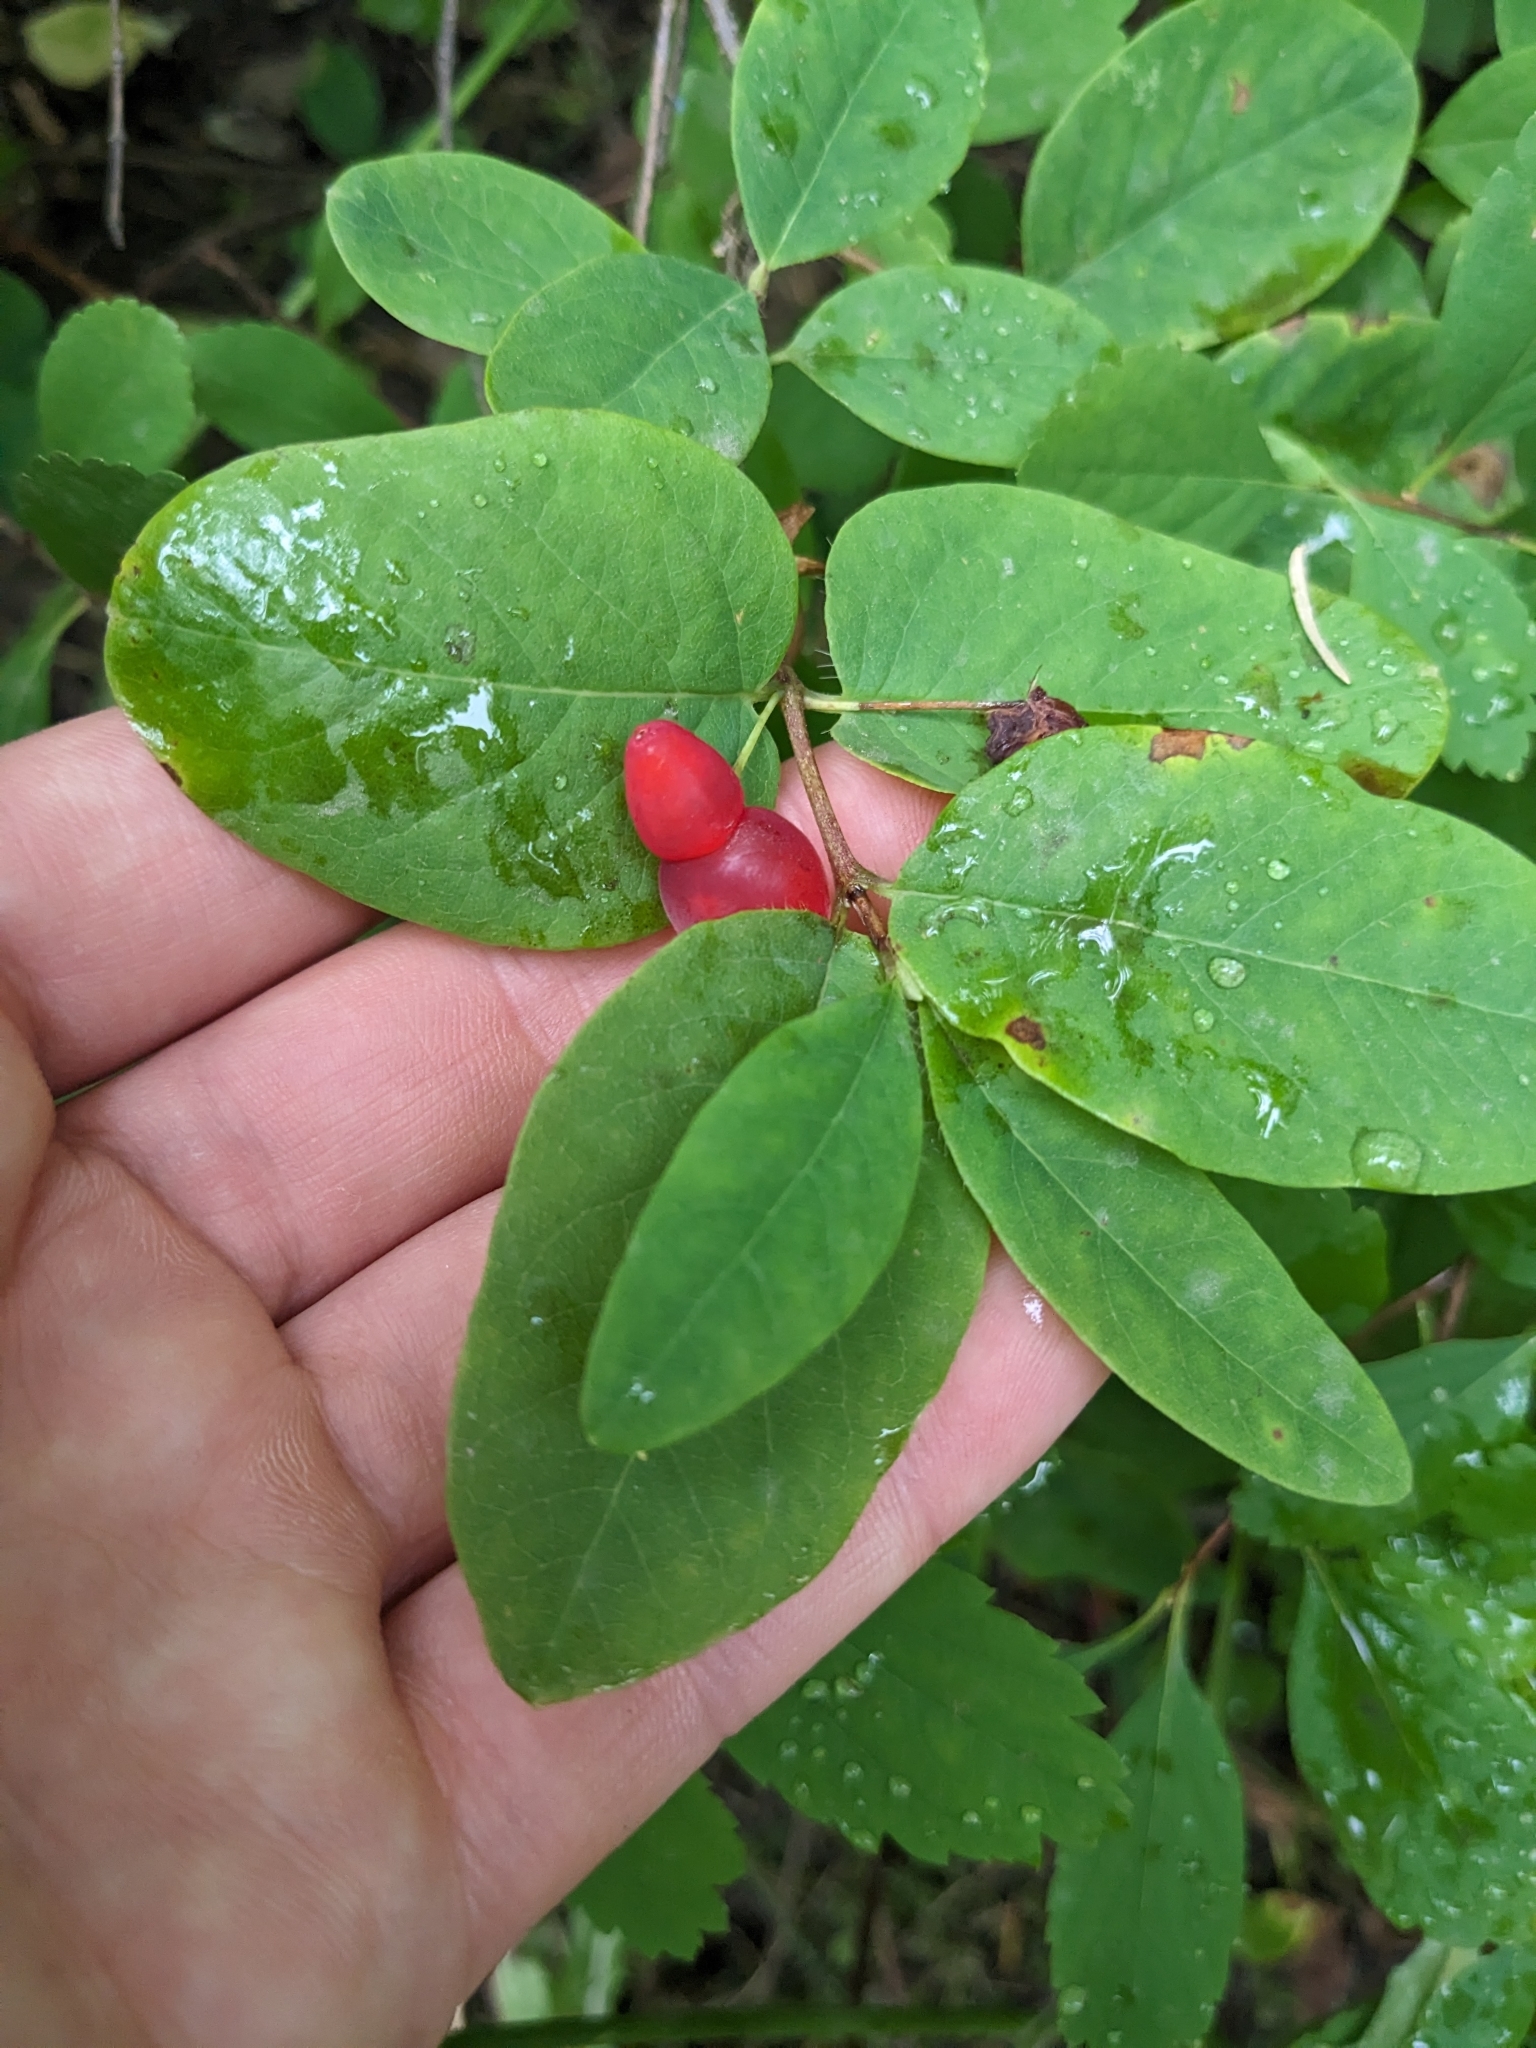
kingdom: Plantae
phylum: Tracheophyta
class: Magnoliopsida
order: Dipsacales
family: Caprifoliaceae
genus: Lonicera
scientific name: Lonicera utahensis
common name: Utah honeysuckle
